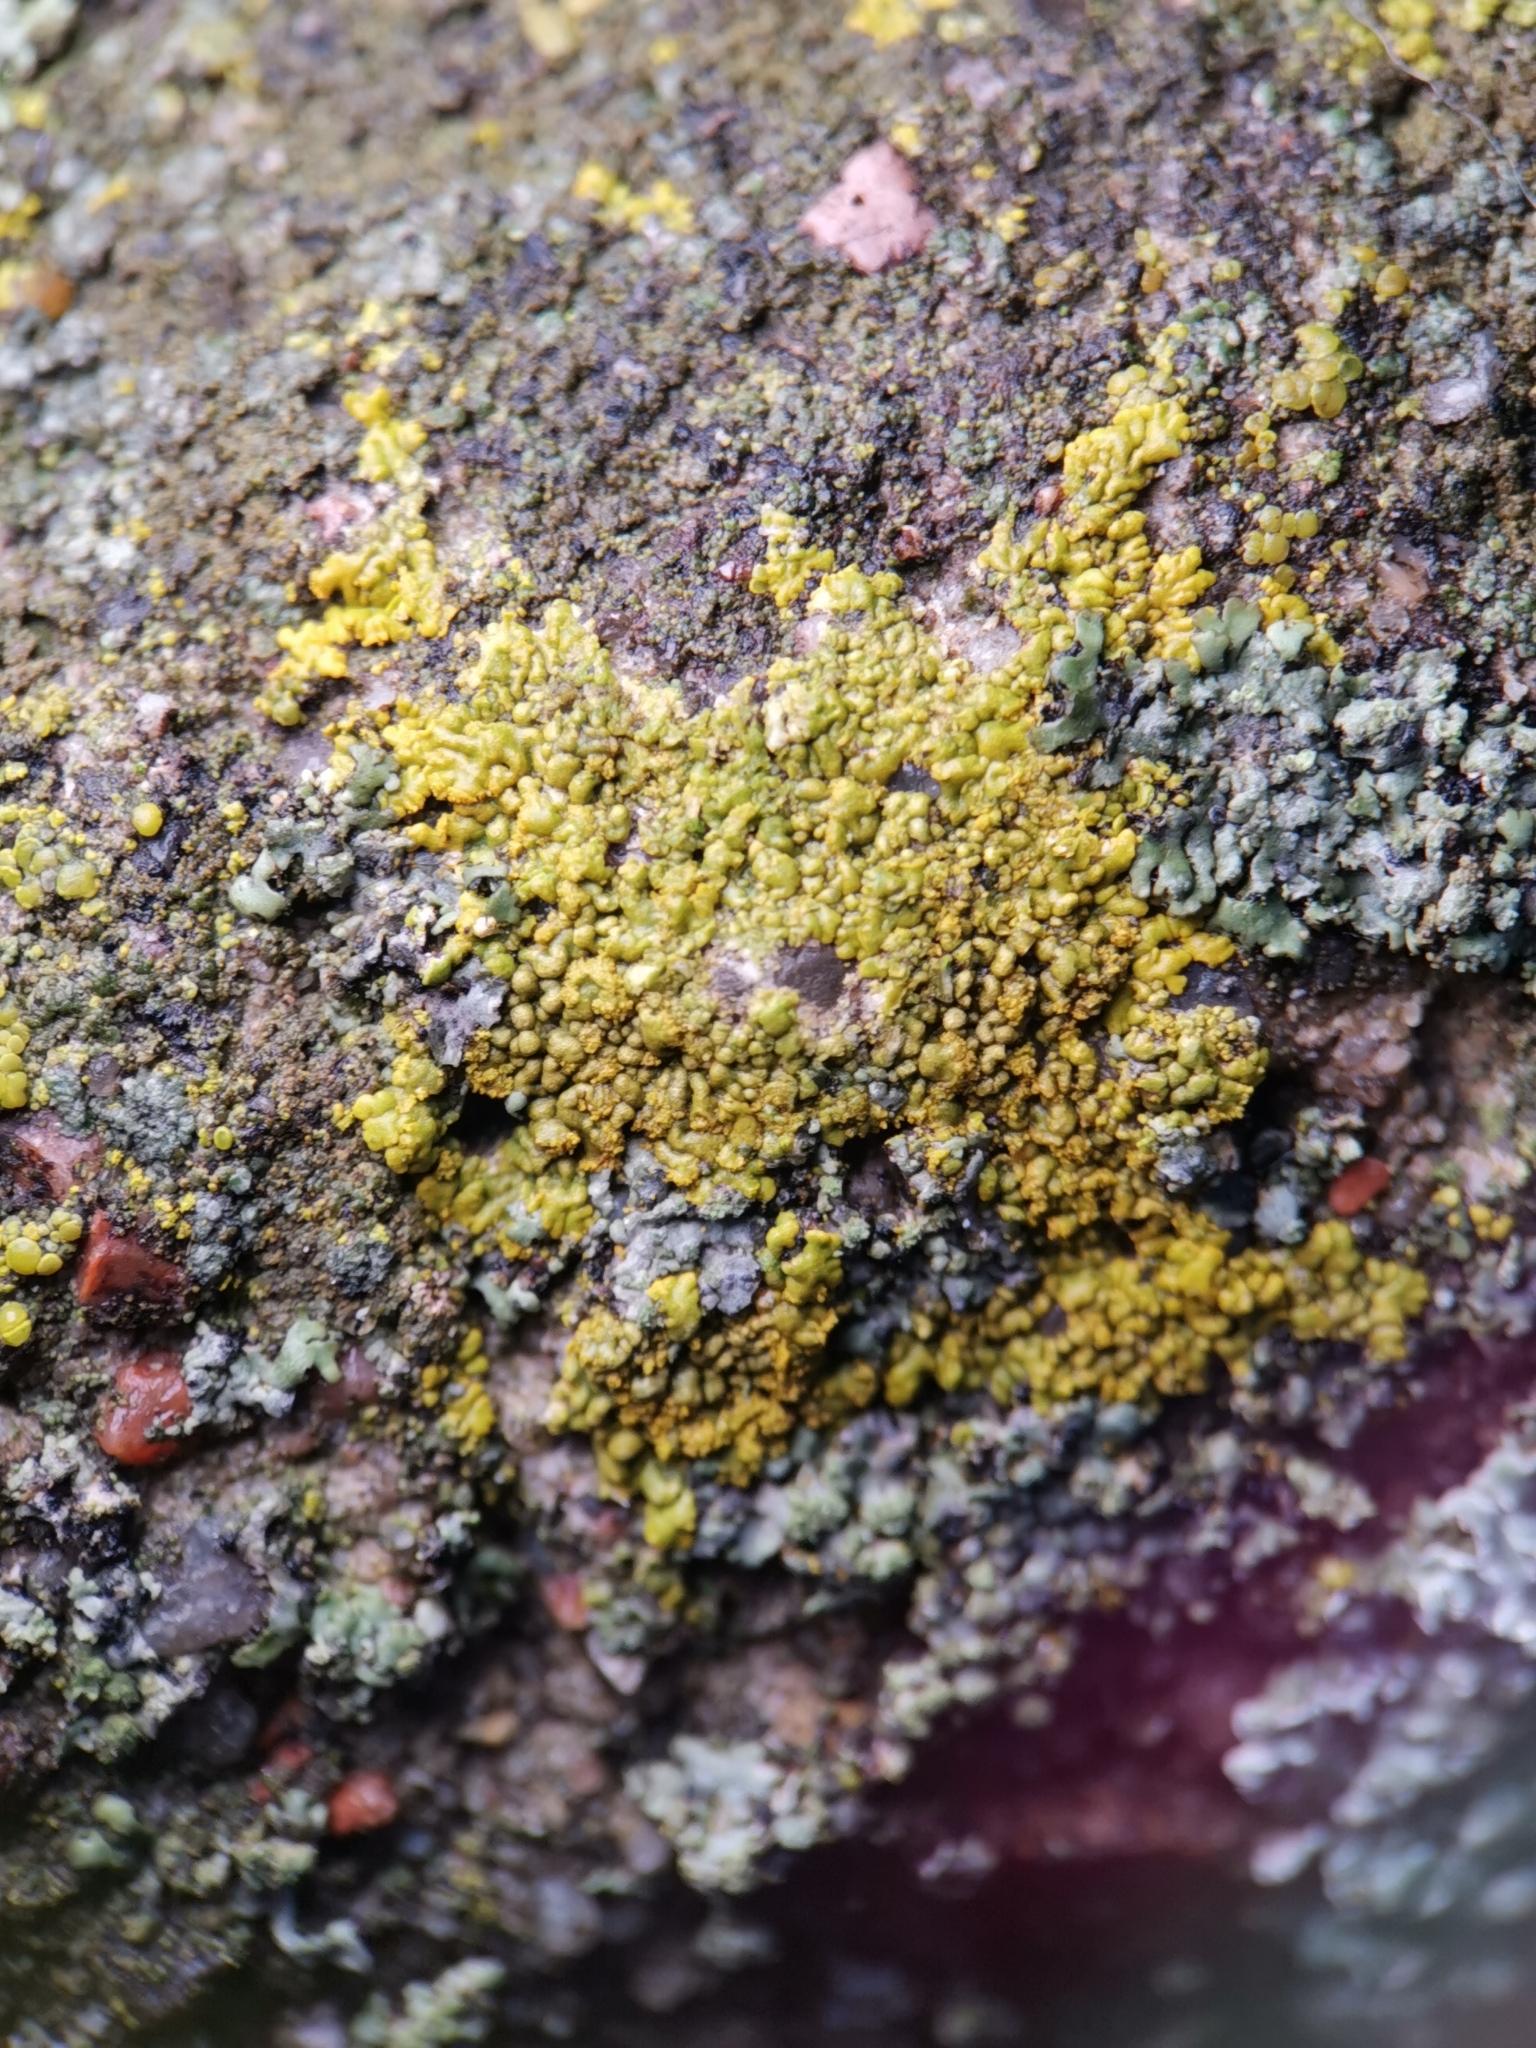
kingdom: Fungi
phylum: Ascomycota
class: Lecanoromycetes
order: Teloschistales
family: Teloschistaceae
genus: Calogaya
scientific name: Calogaya decipiens
